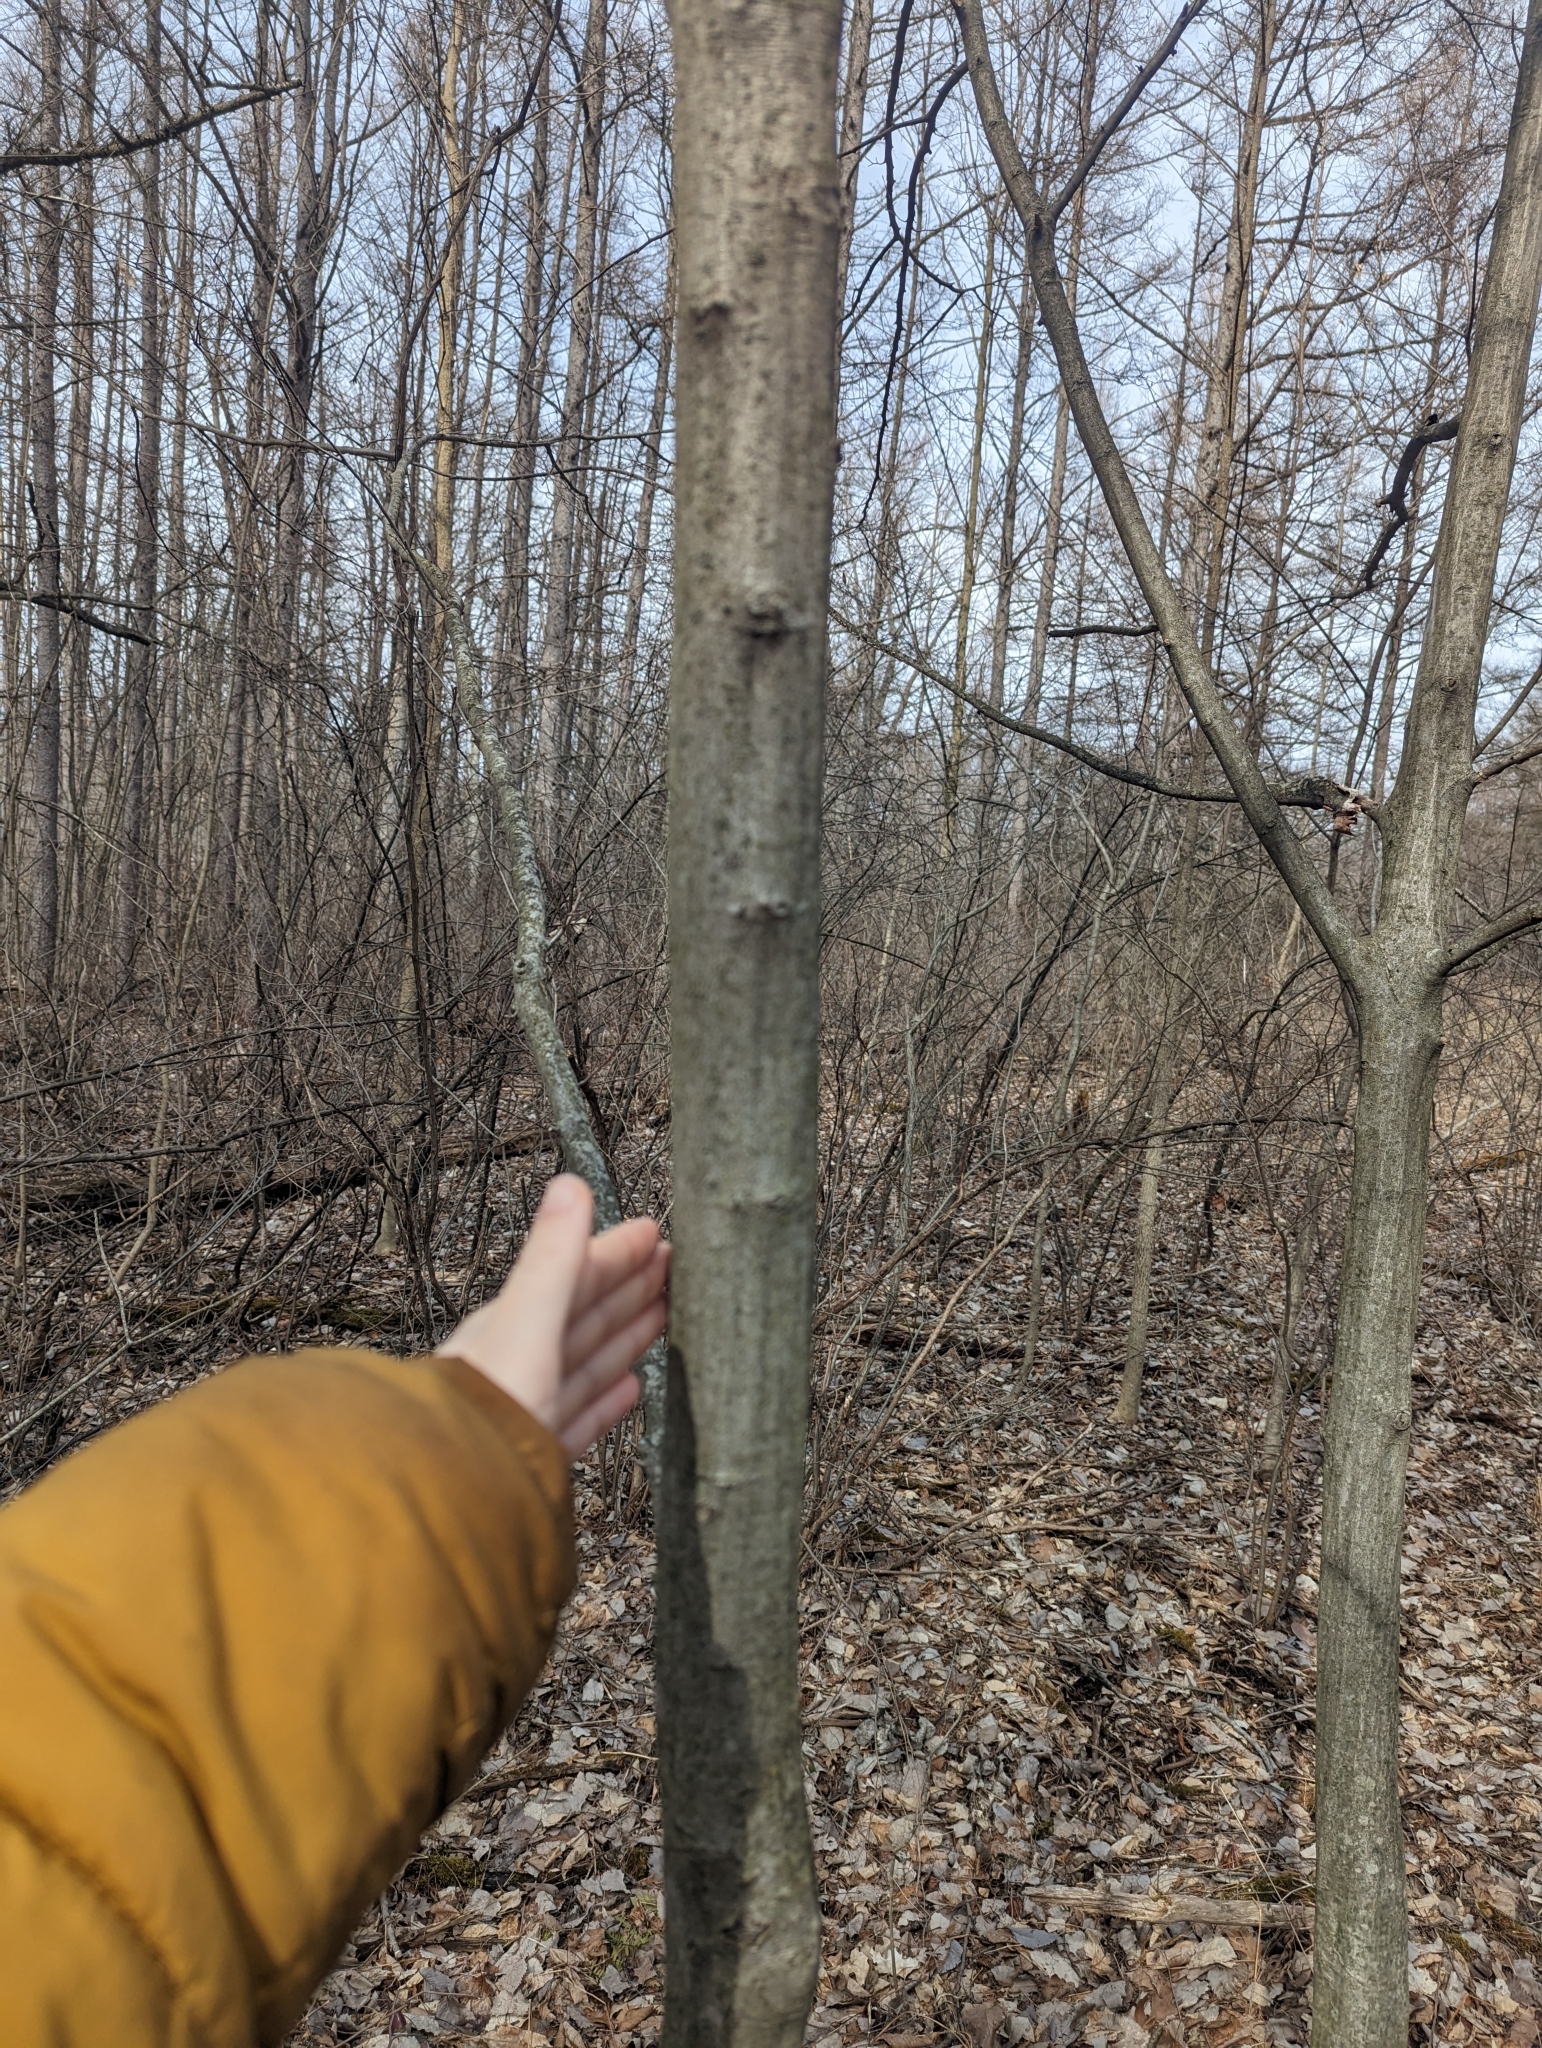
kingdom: Plantae
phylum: Tracheophyta
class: Magnoliopsida
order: Fagales
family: Betulaceae
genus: Carpinus
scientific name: Carpinus caroliniana
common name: American hornbeam
